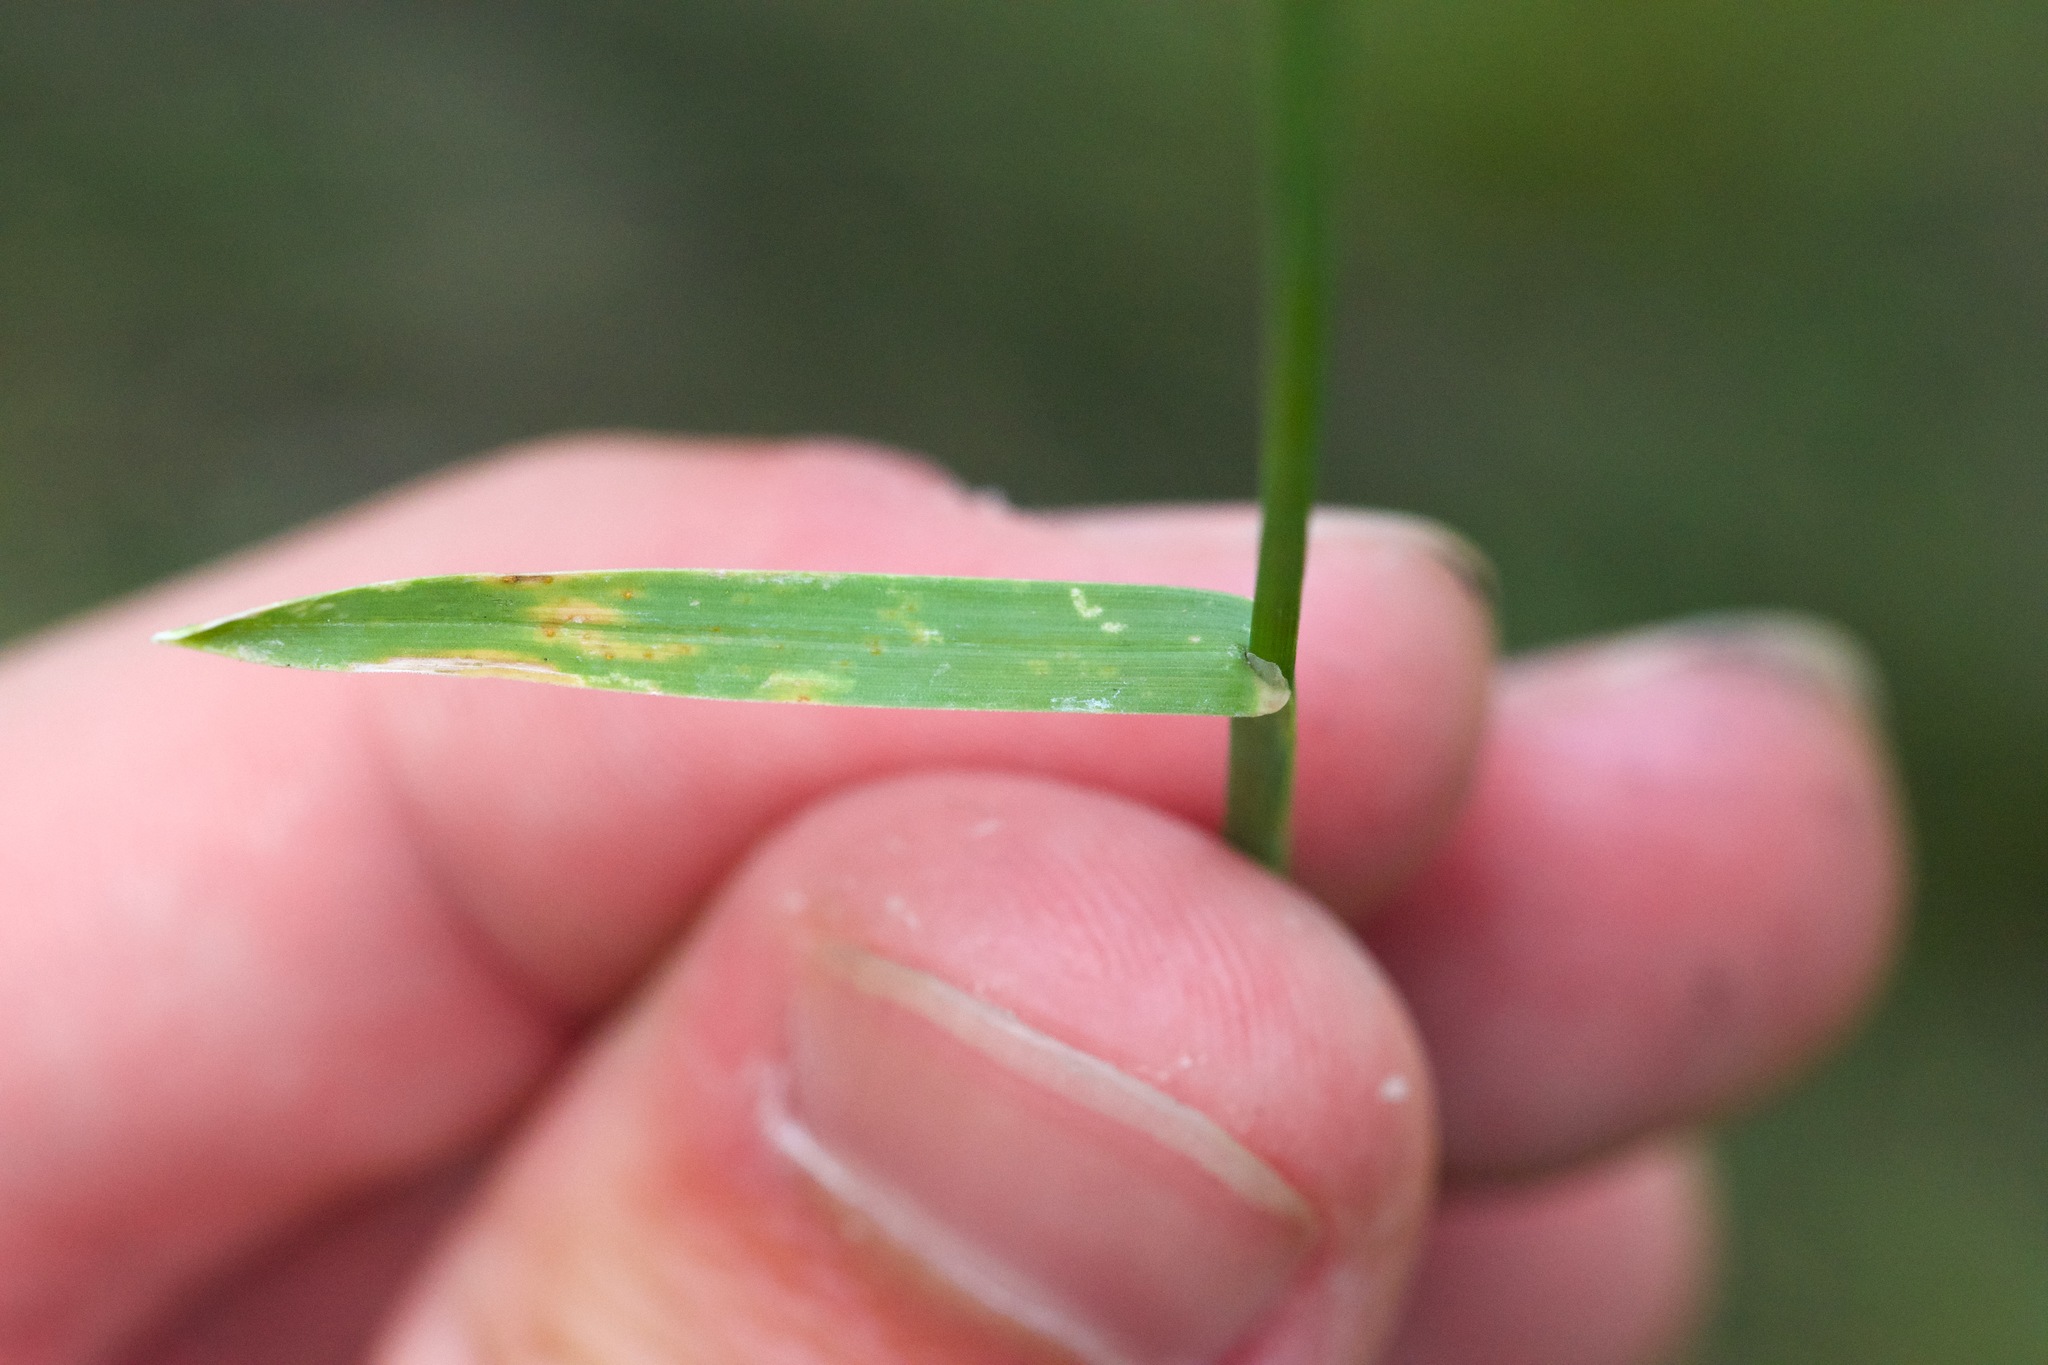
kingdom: Plantae
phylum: Tracheophyta
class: Liliopsida
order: Poales
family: Poaceae
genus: Poa
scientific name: Poa compressa
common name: Canada bluegrass
